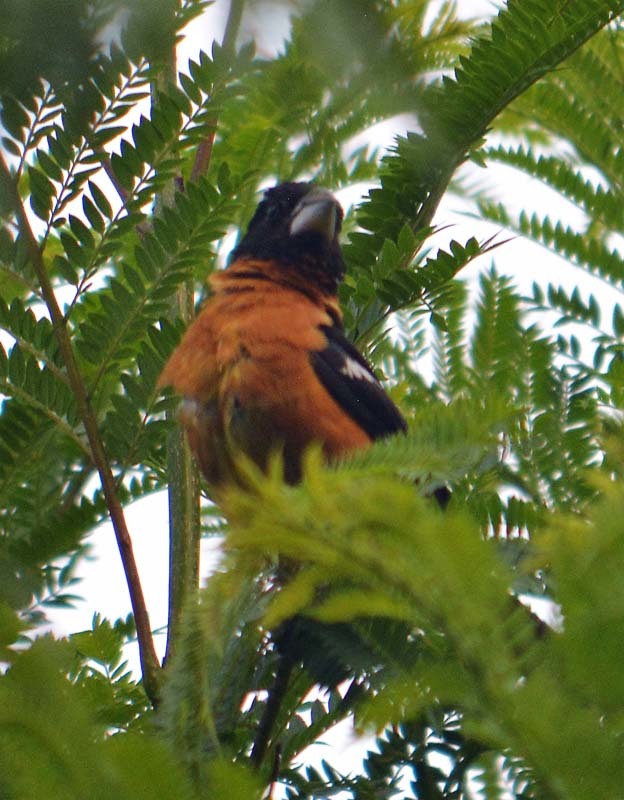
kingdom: Animalia
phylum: Chordata
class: Aves
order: Passeriformes
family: Cardinalidae
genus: Pheucticus
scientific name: Pheucticus melanocephalus
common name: Black-headed grosbeak
